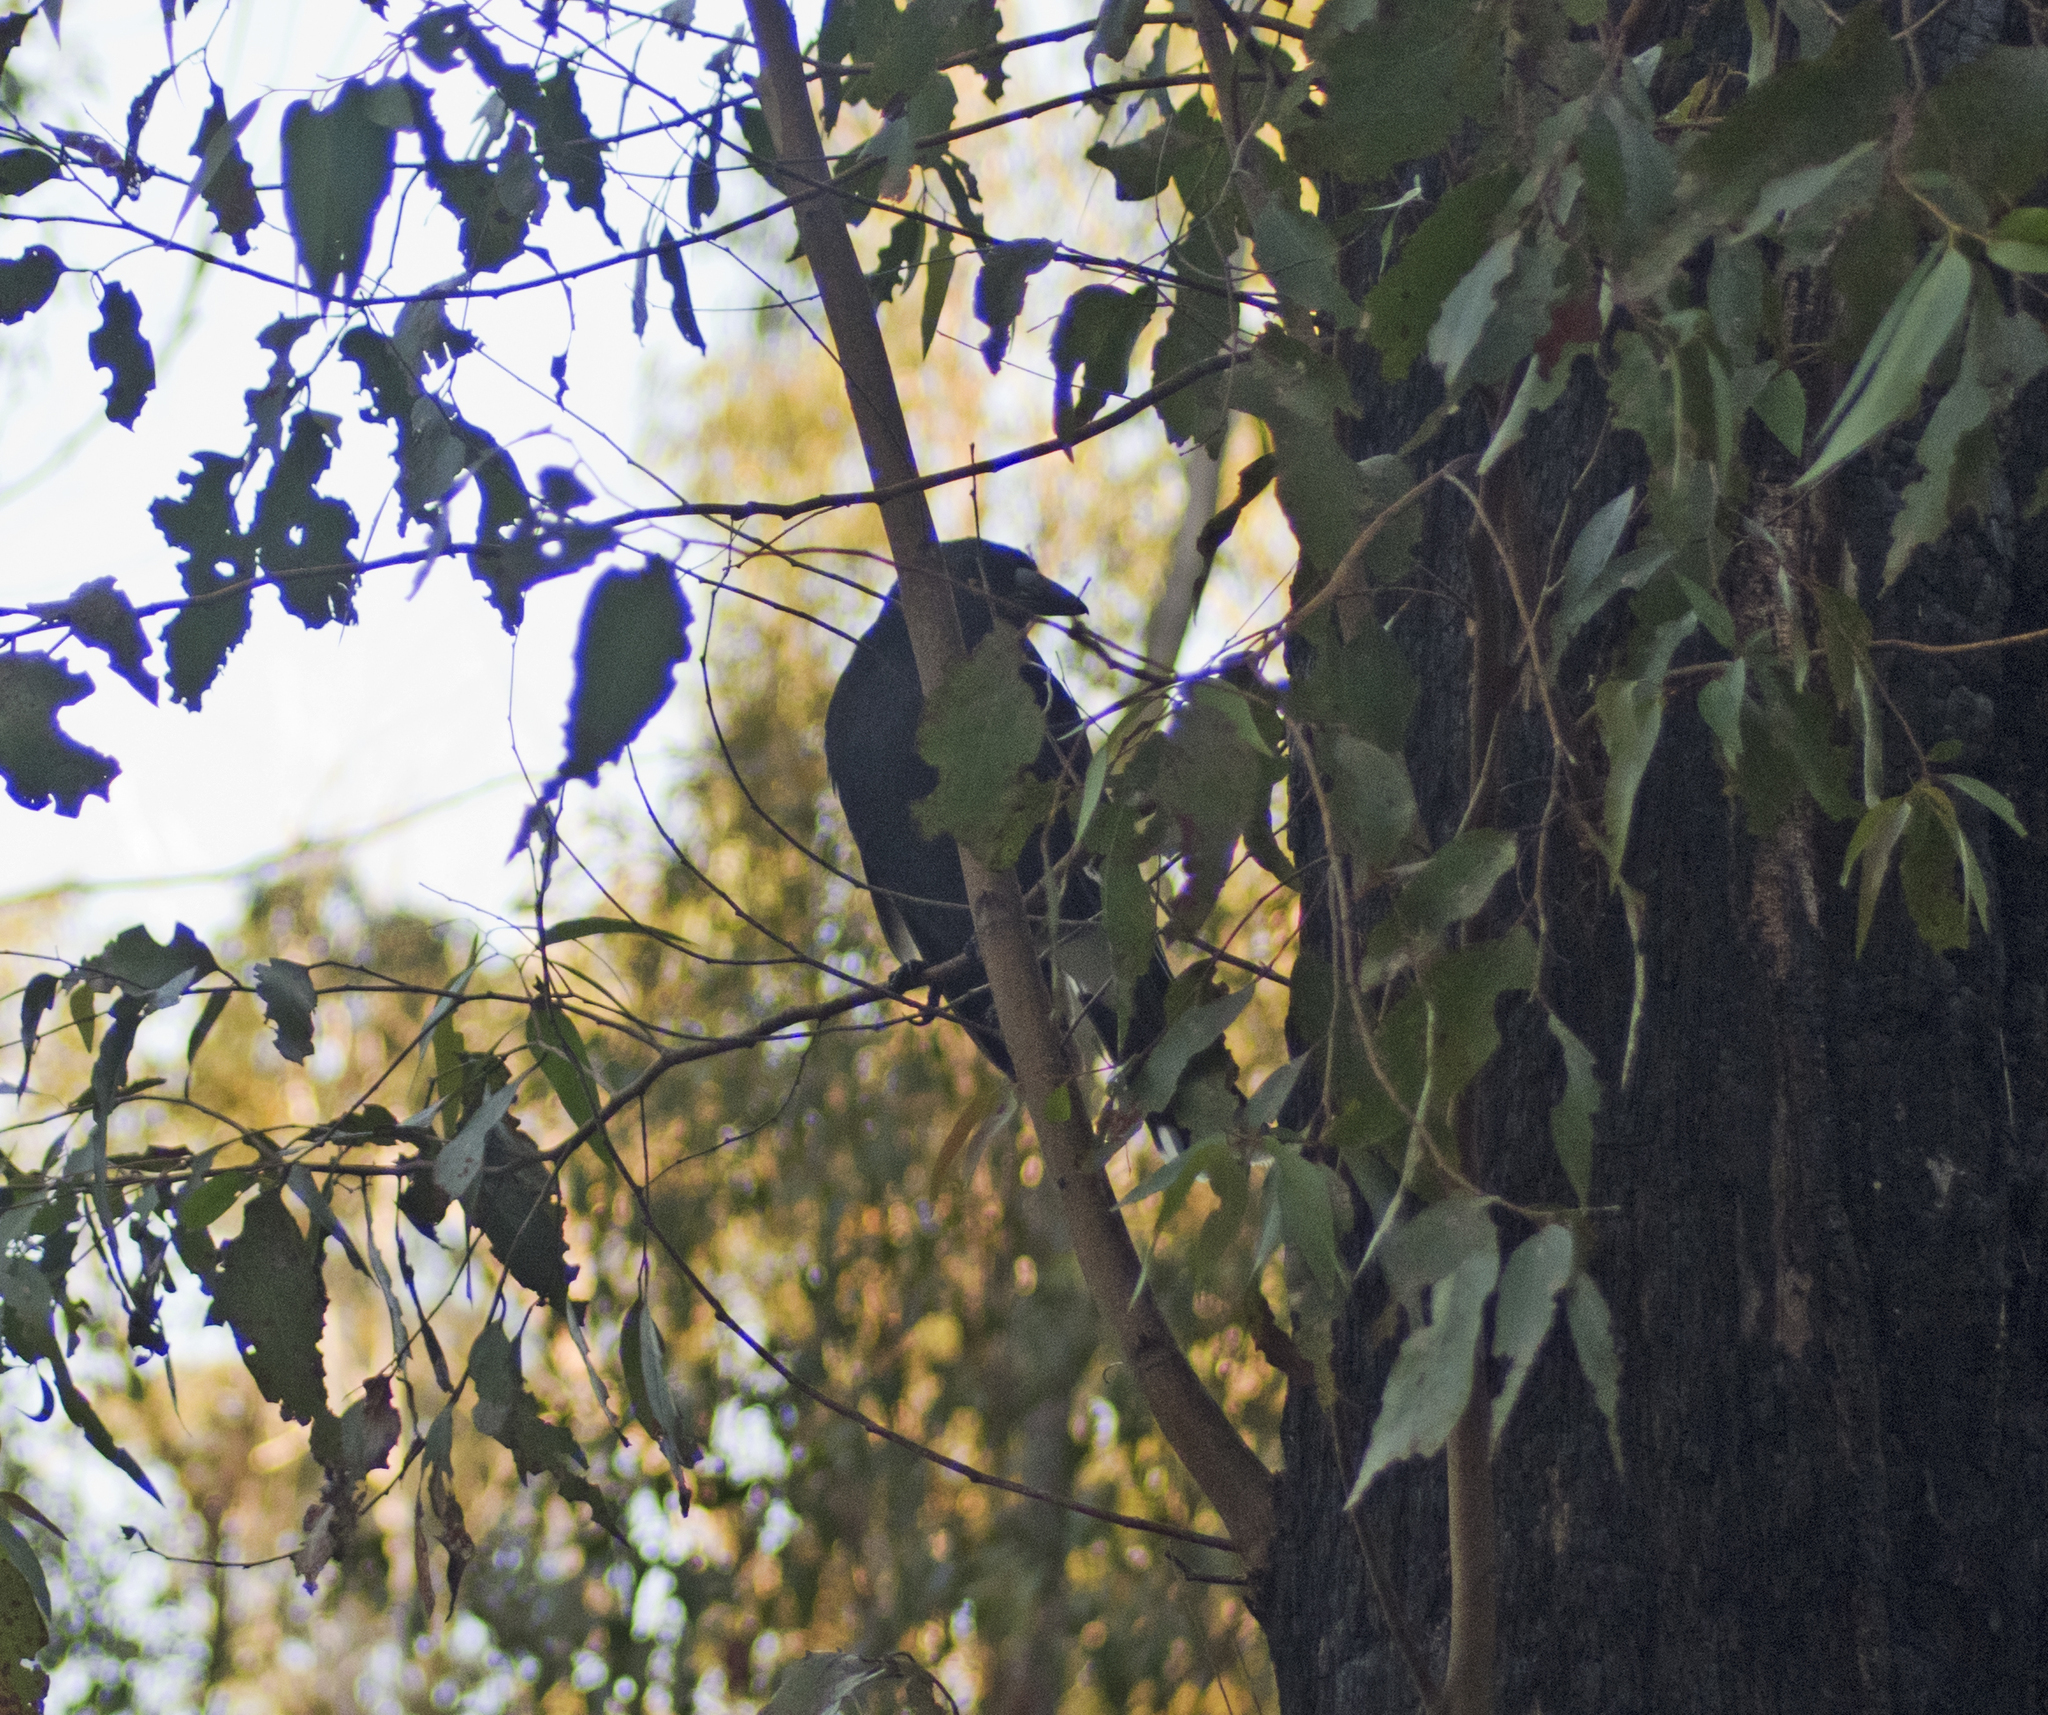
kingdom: Animalia
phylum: Chordata
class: Aves
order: Passeriformes
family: Cracticidae
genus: Strepera
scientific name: Strepera graculina
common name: Pied currawong
